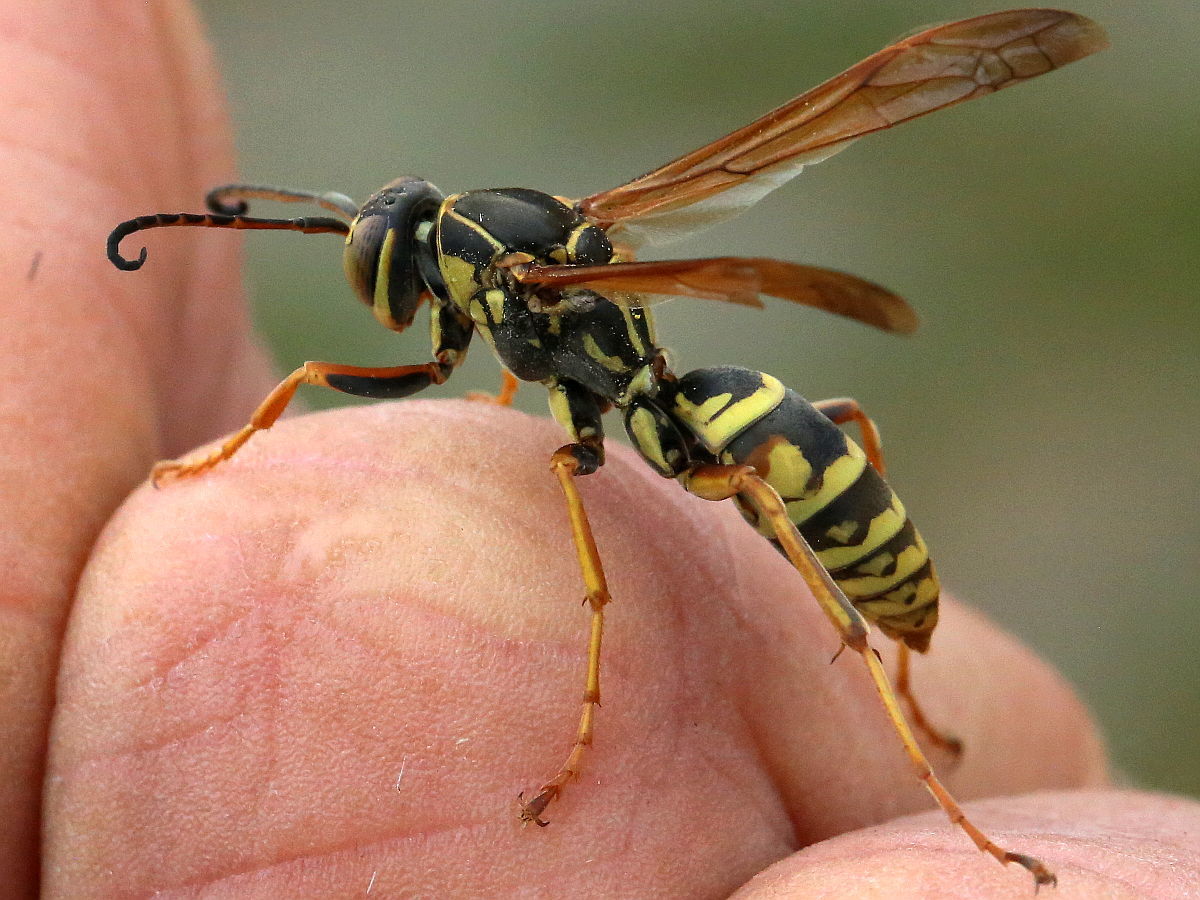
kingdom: Animalia
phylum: Arthropoda
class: Insecta
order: Hymenoptera
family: Eumenidae
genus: Polistes
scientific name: Polistes fuscatus
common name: Dark paper wasp
